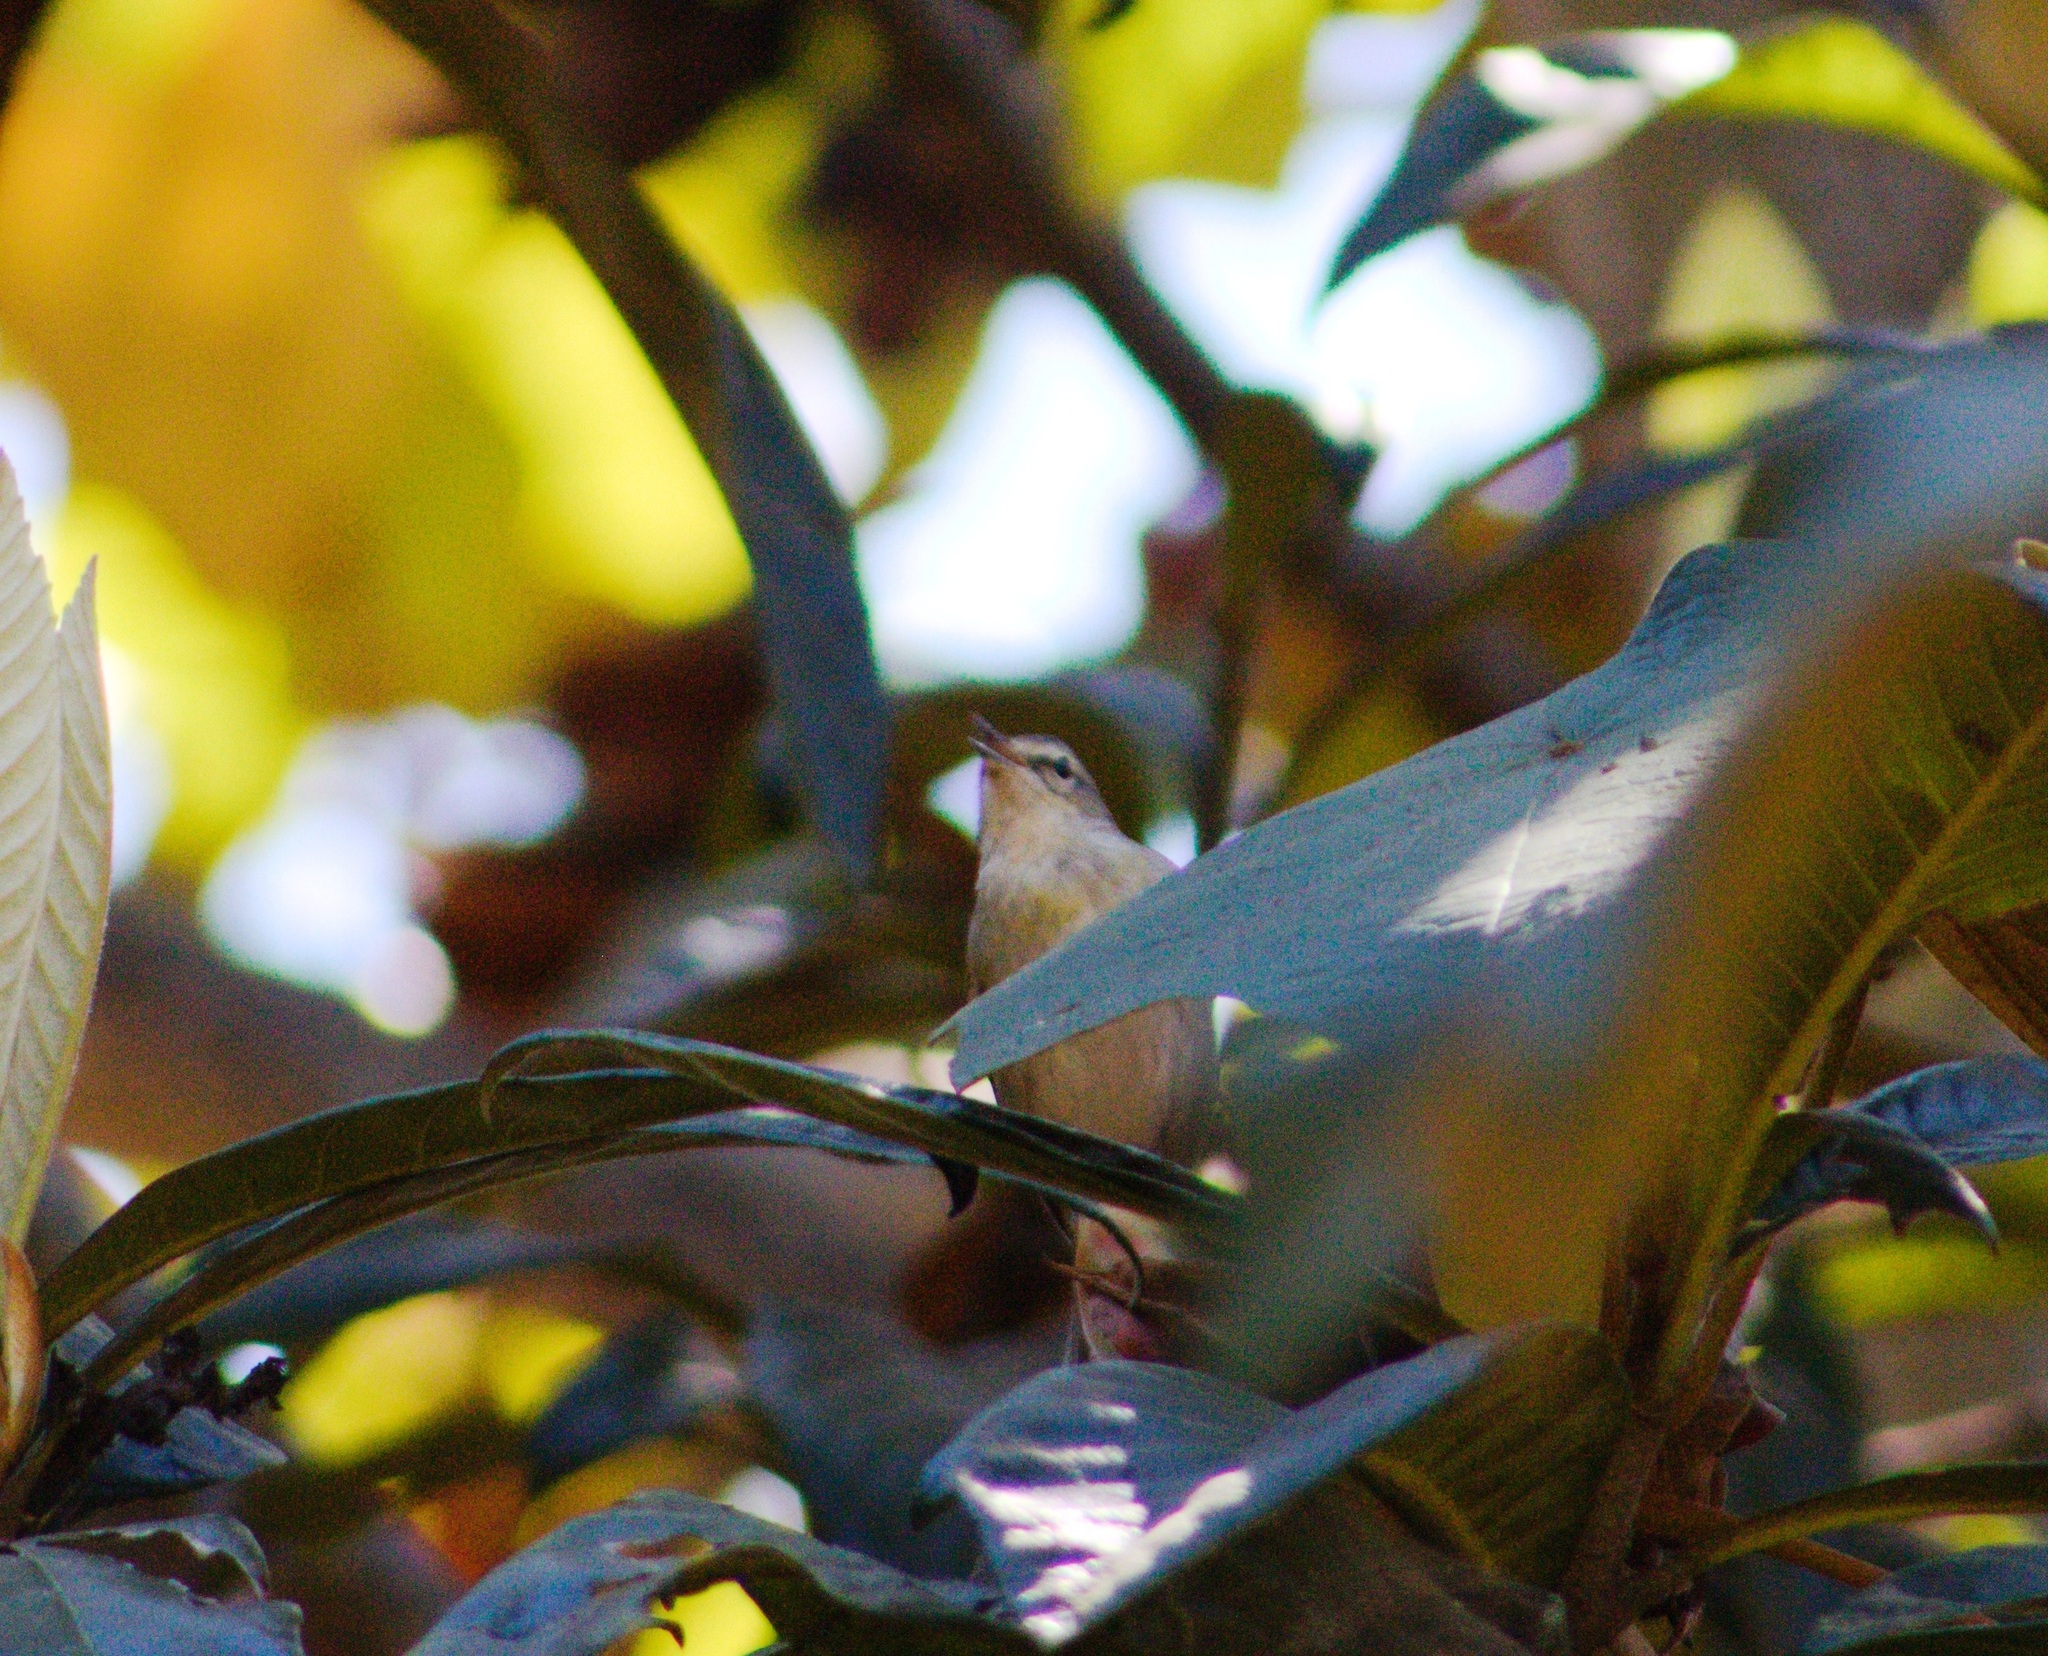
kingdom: Animalia
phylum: Chordata
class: Aves
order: Passeriformes
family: Parulidae
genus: Leiothlypis
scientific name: Leiothlypis peregrina
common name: Tennessee warbler
